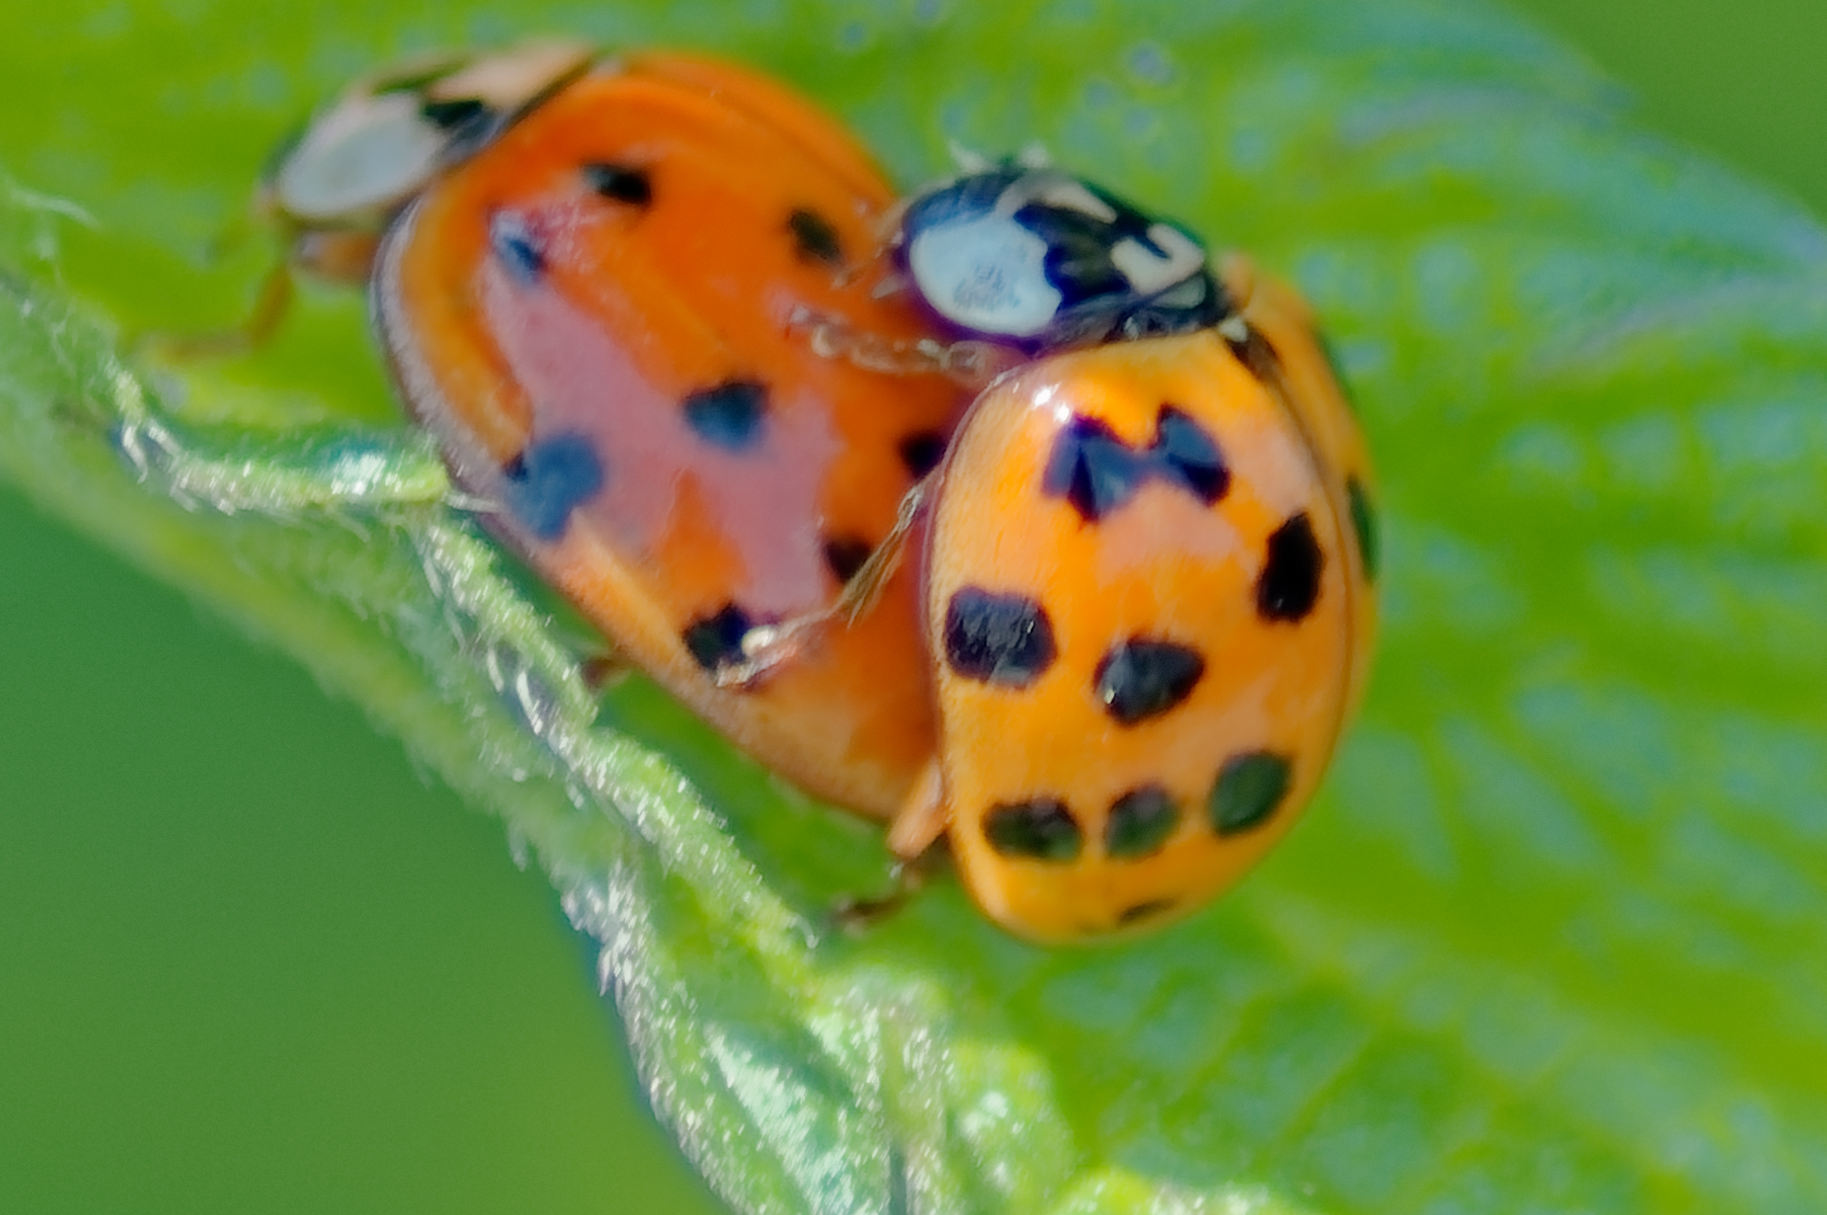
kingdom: Animalia
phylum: Arthropoda
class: Insecta
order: Coleoptera
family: Coccinellidae
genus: Harmonia
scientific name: Harmonia axyridis
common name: Harlequin ladybird
